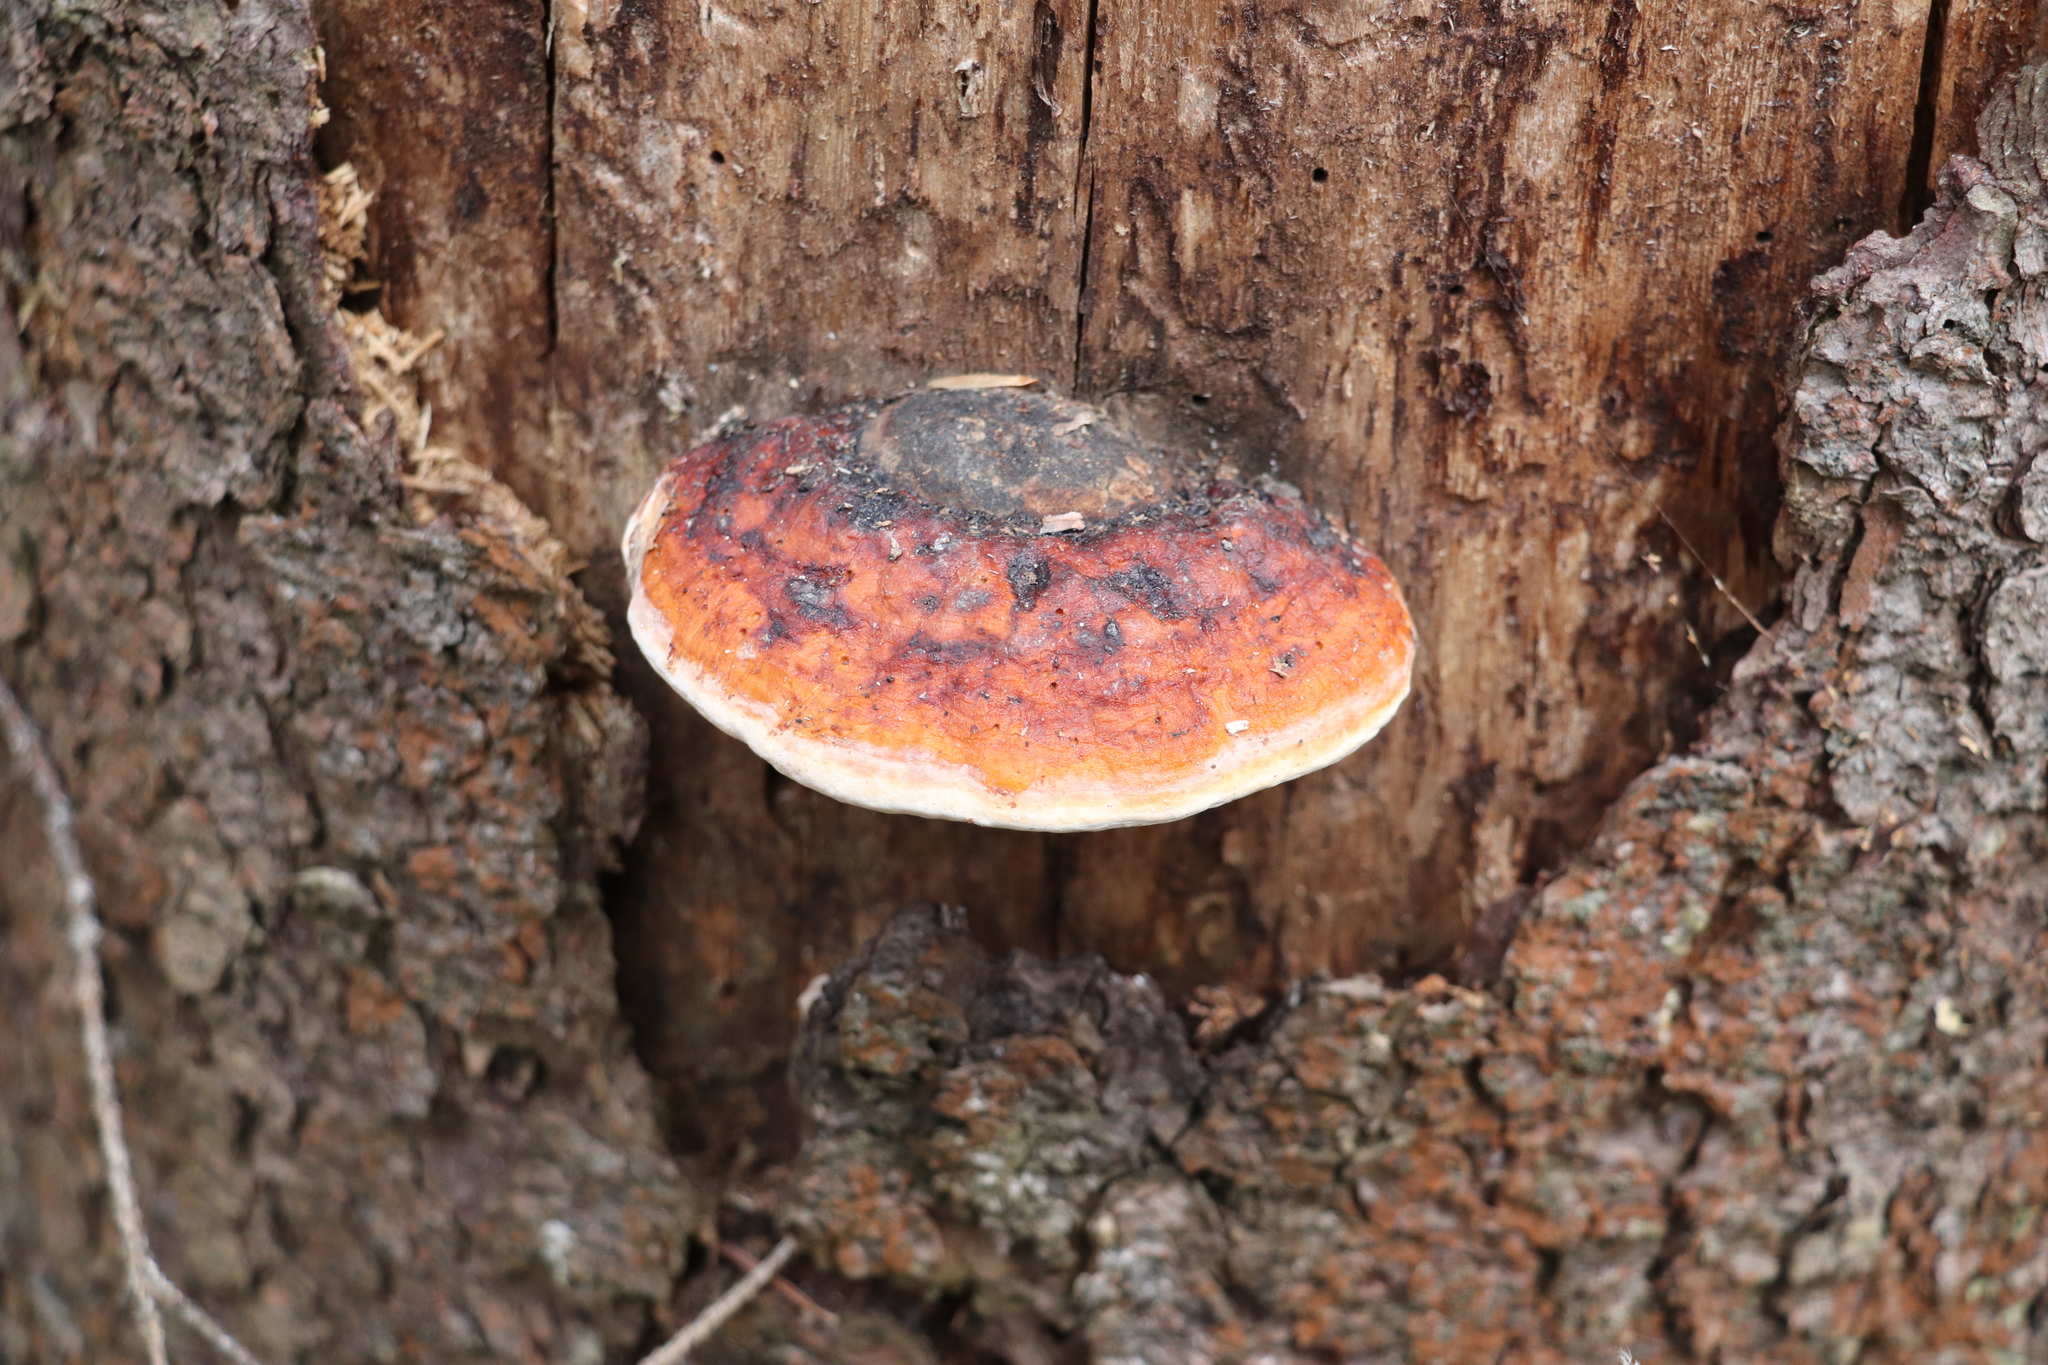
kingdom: Fungi
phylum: Basidiomycota
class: Agaricomycetes
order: Polyporales
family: Fomitopsidaceae
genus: Fomitopsis
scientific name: Fomitopsis pinicola
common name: Red-belted bracket
